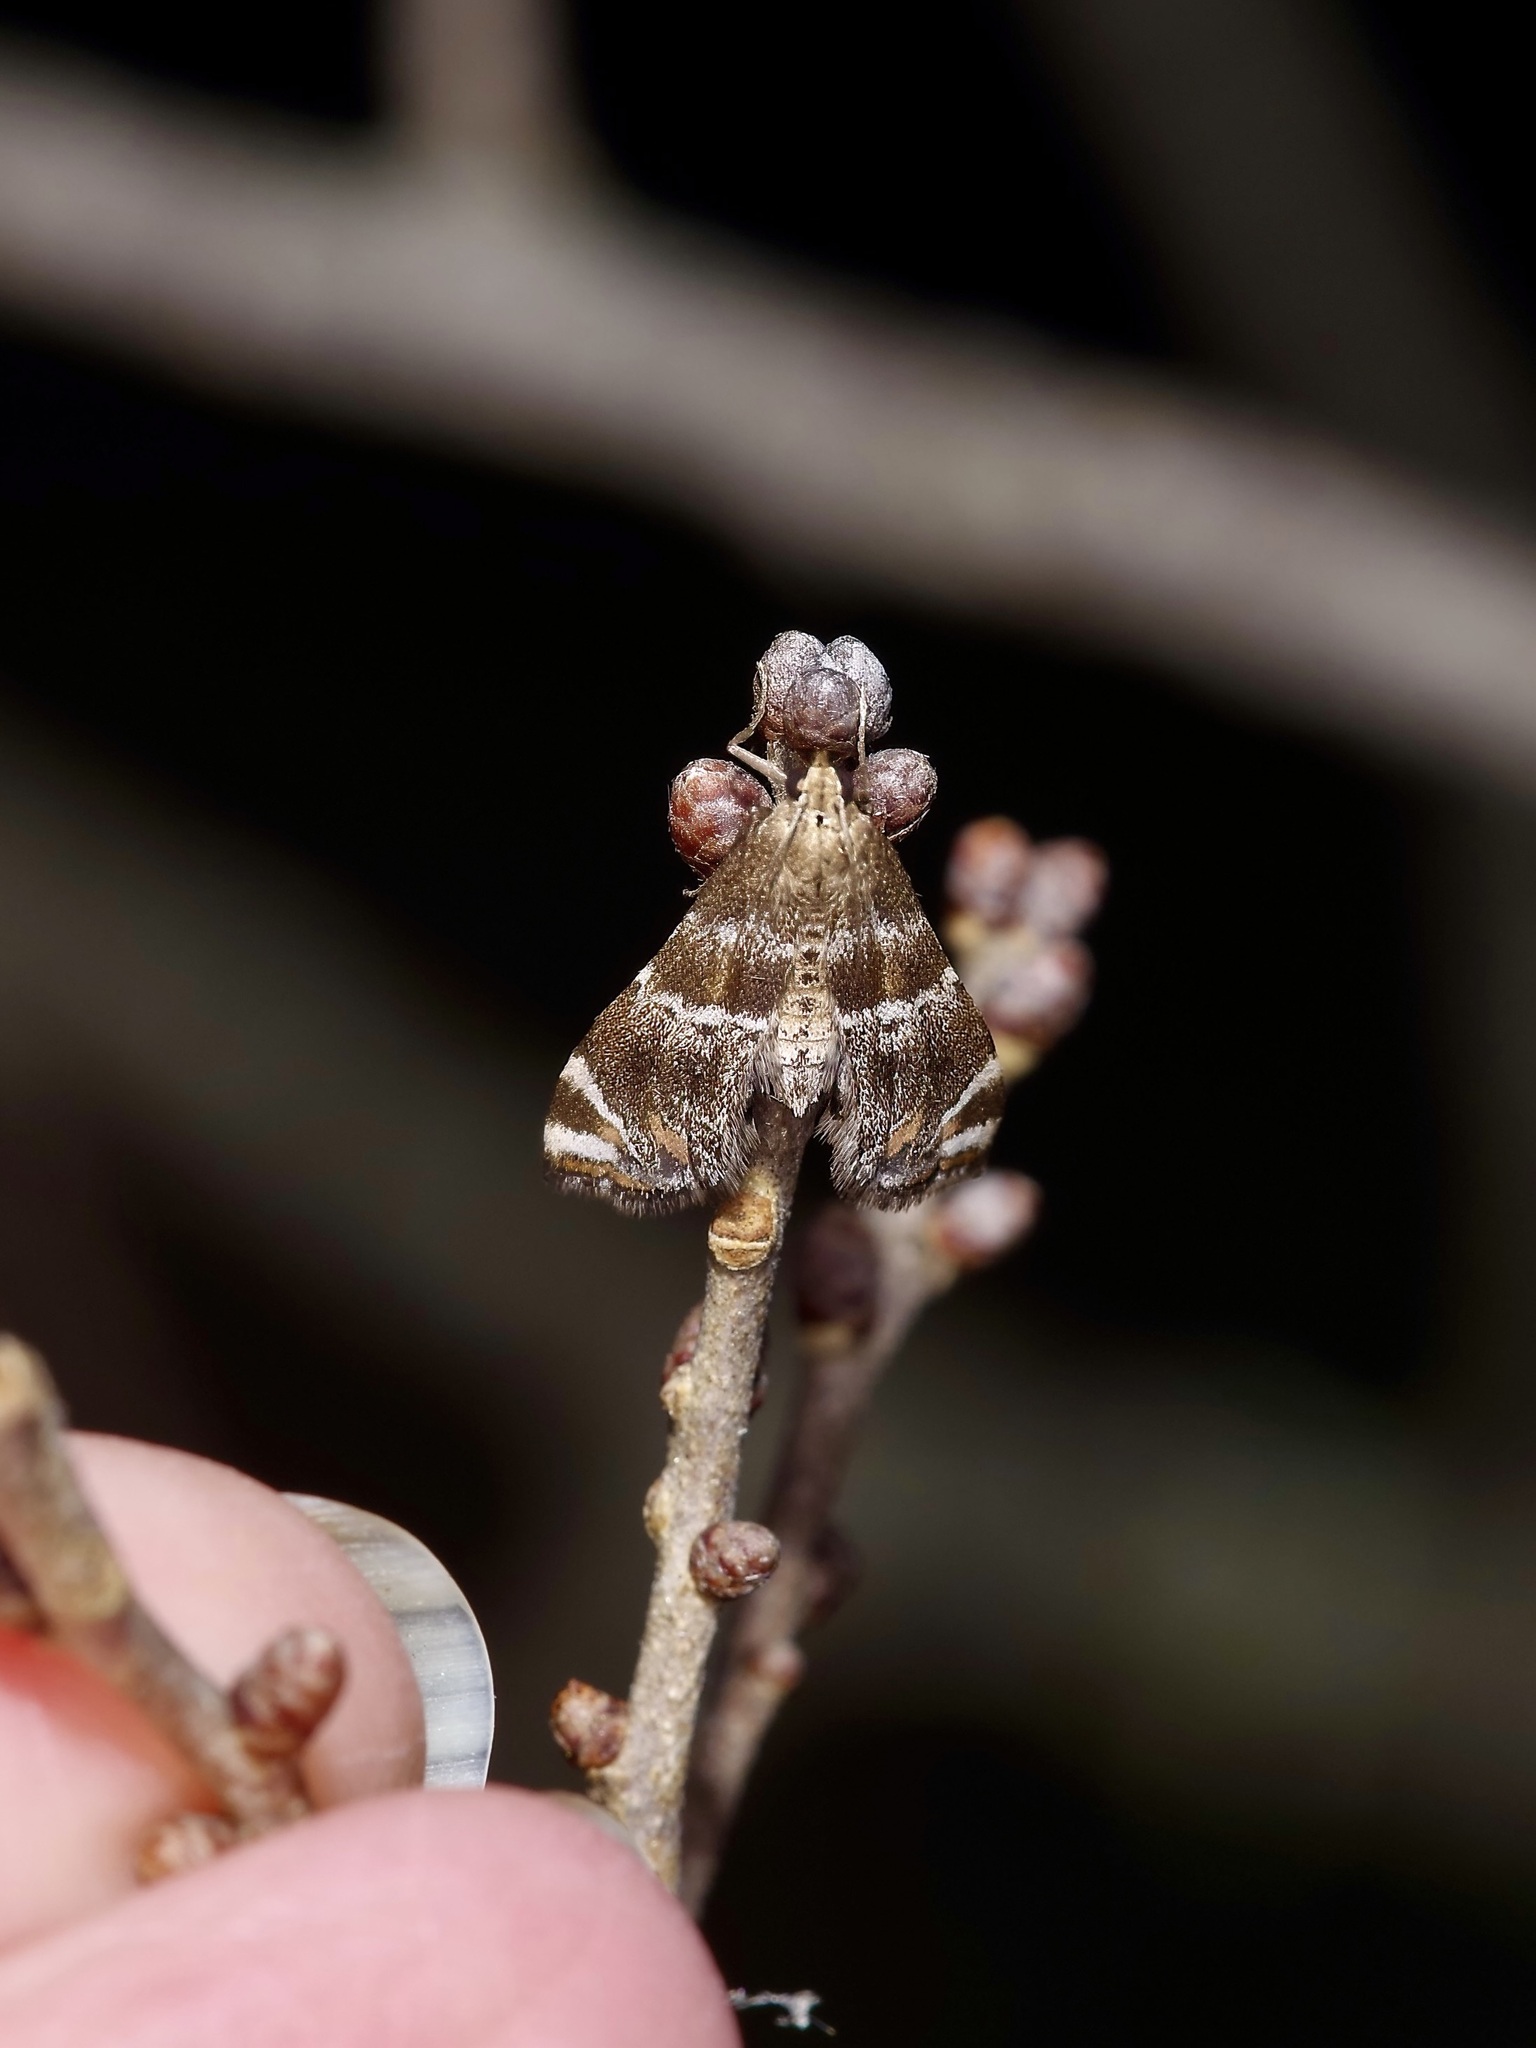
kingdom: Animalia
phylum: Arthropoda
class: Insecta
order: Lepidoptera
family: Crambidae
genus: Petrophila
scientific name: Petrophila jaliscalis
